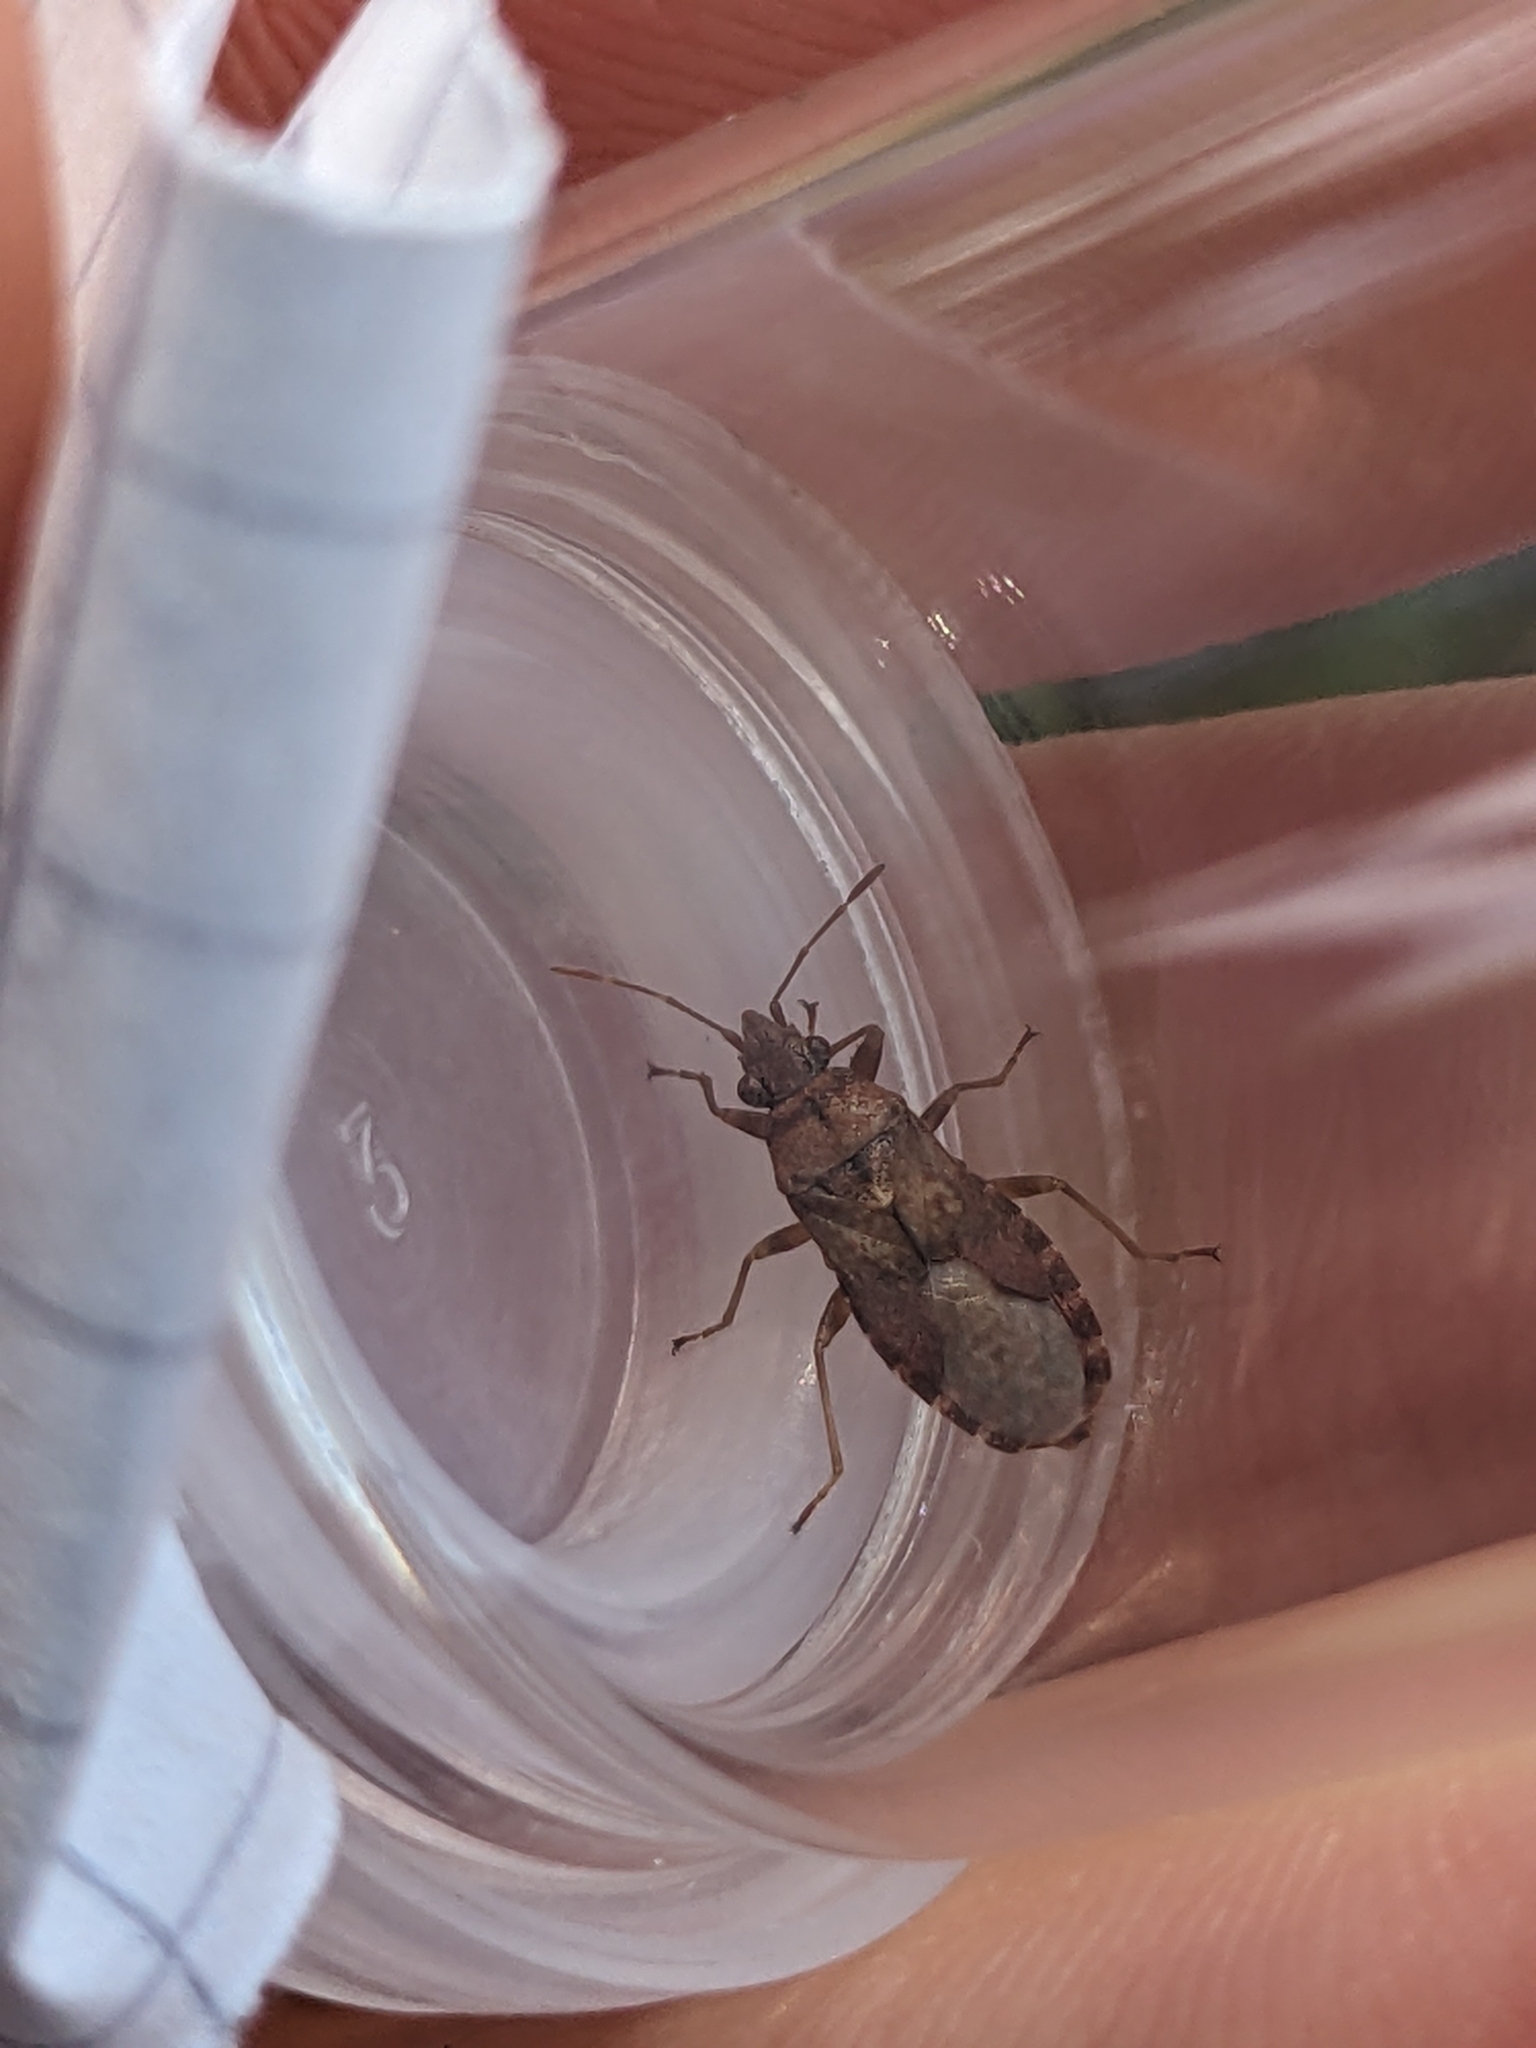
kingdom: Animalia
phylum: Arthropoda
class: Insecta
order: Hemiptera
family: Lygaeidae
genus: Orsillus
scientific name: Orsillus depressus
